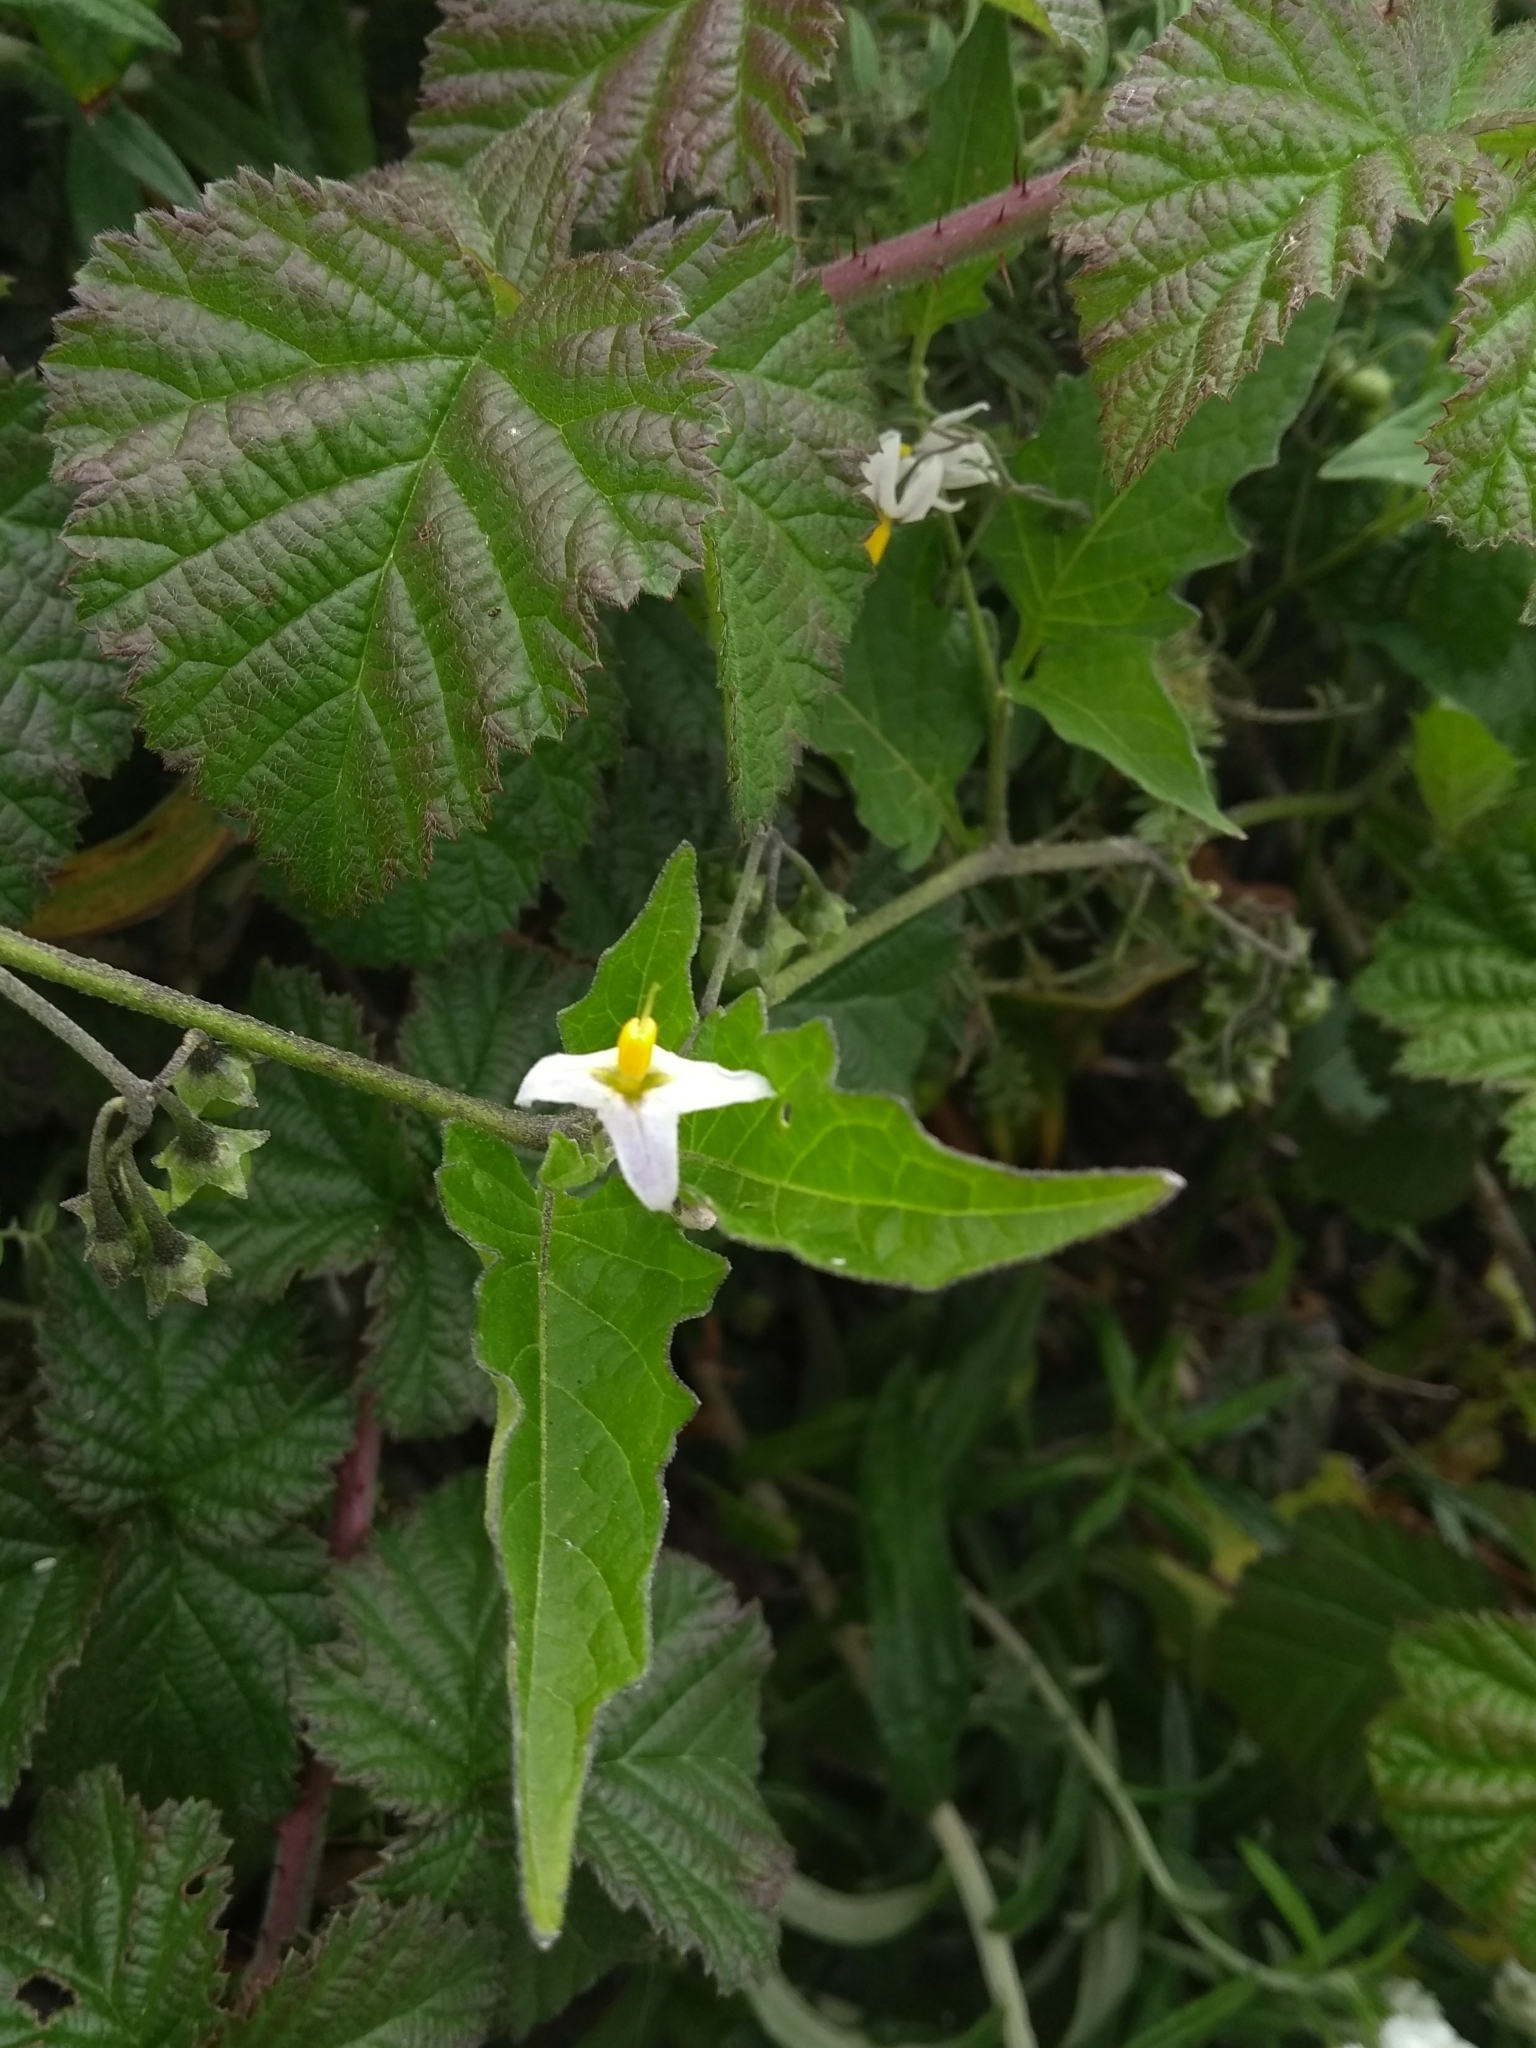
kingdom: Plantae
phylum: Tracheophyta
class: Magnoliopsida
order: Solanales
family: Solanaceae
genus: Solanum
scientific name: Solanum furcatum
